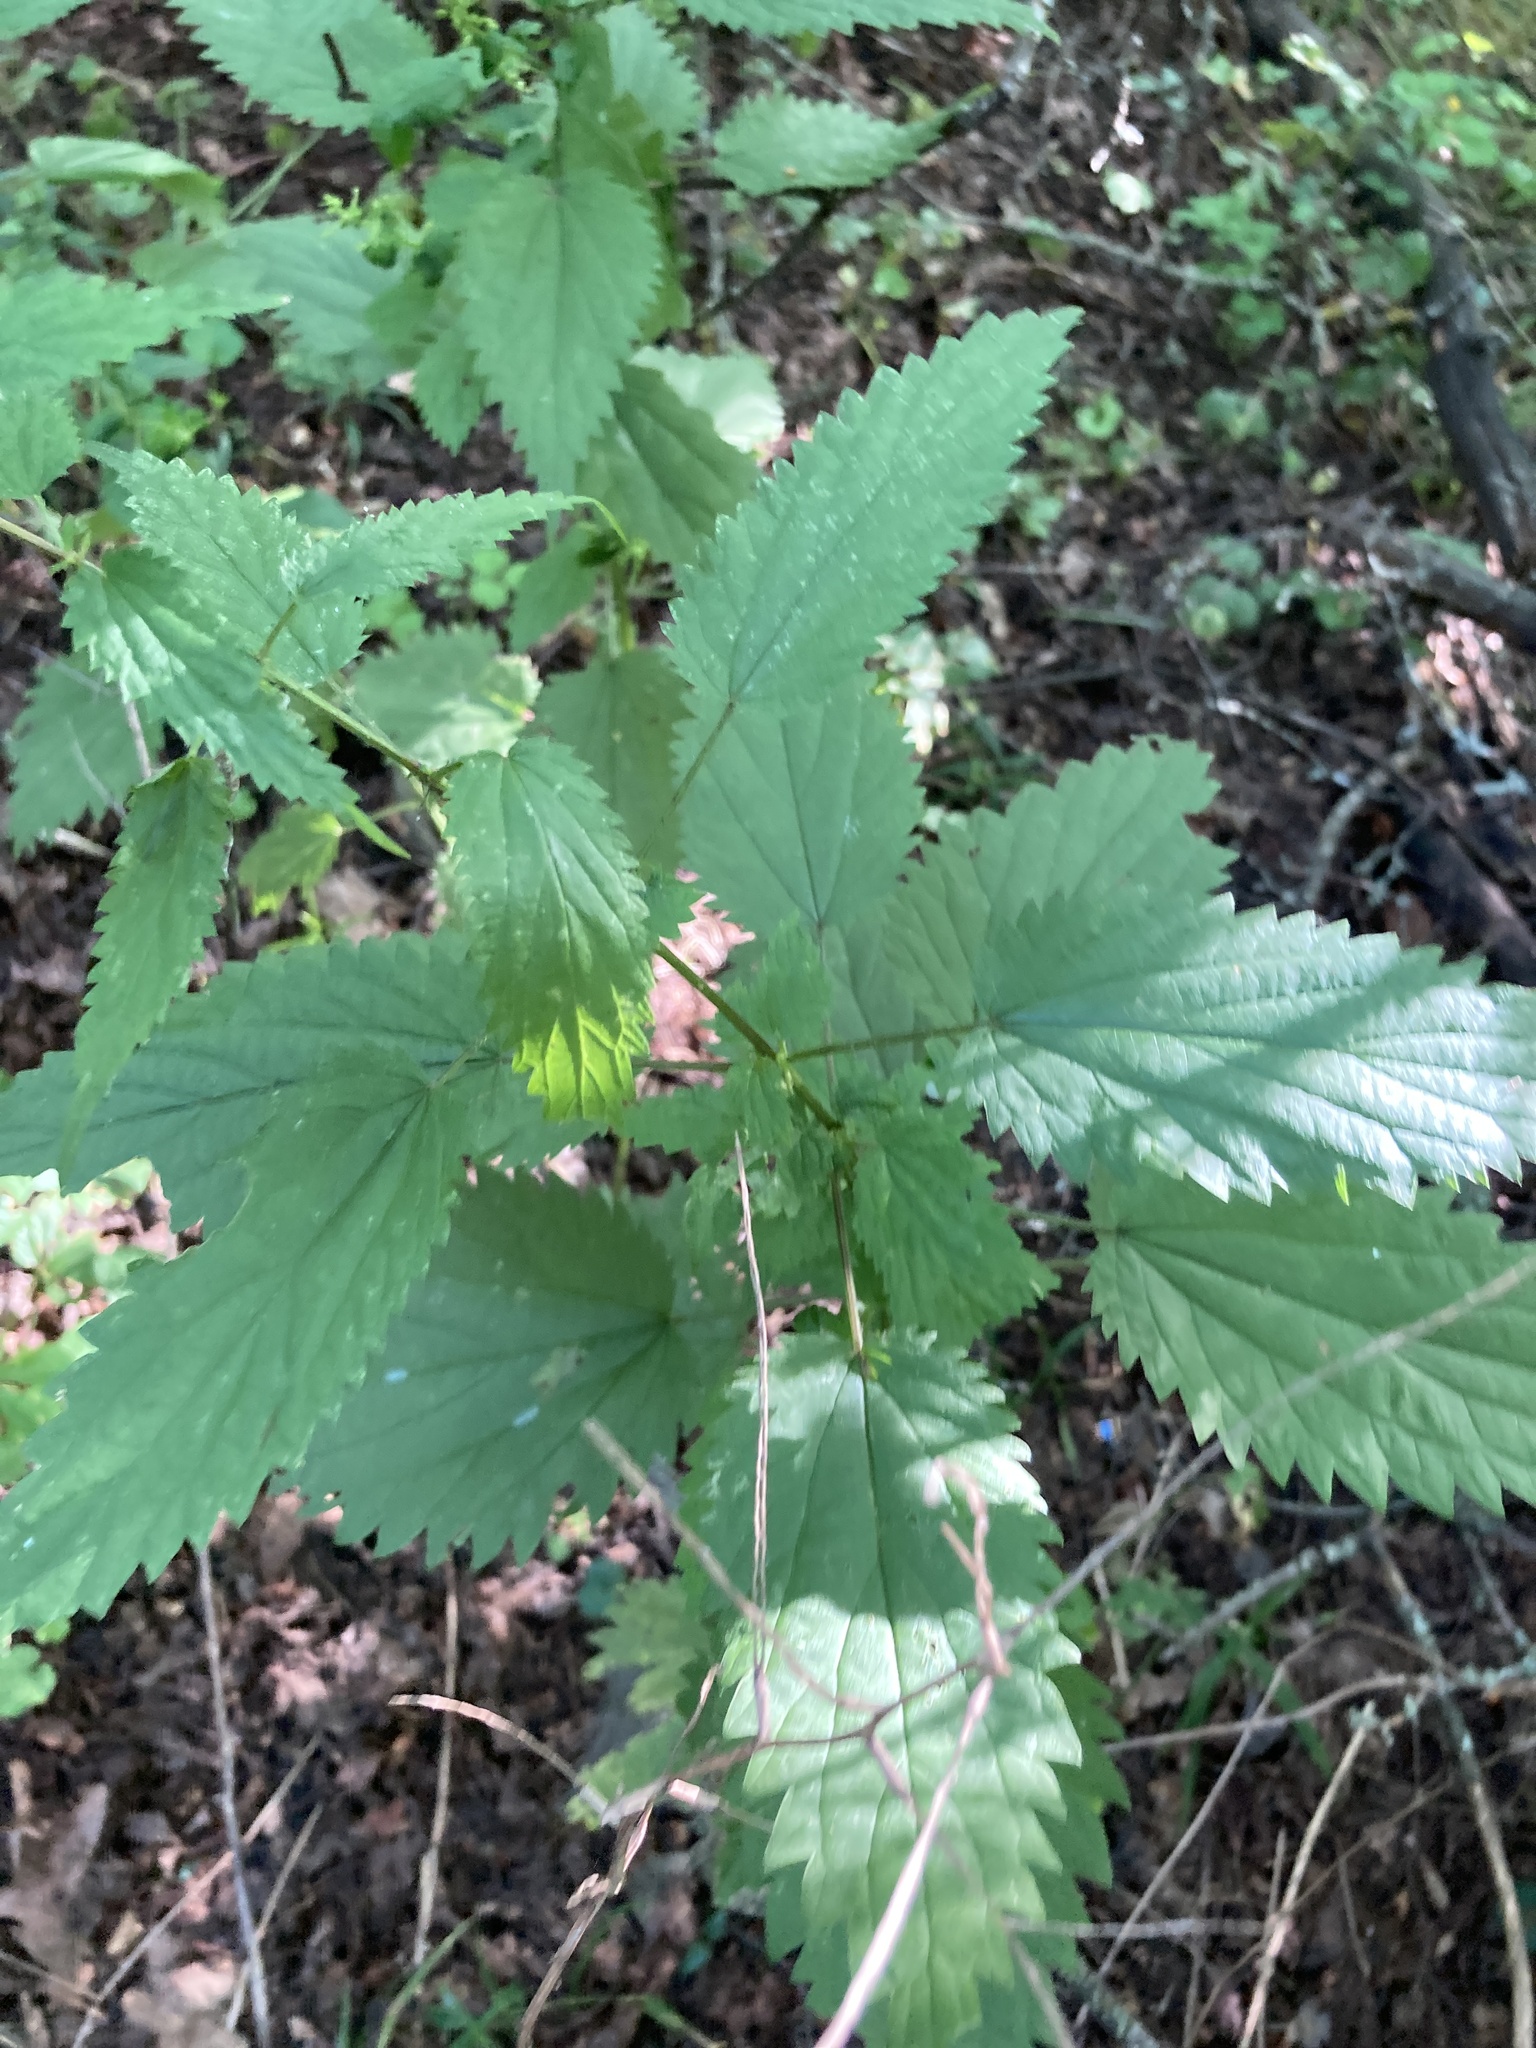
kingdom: Plantae
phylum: Tracheophyta
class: Magnoliopsida
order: Rosales
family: Urticaceae
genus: Urtica
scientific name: Urtica dioica
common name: Common nettle
